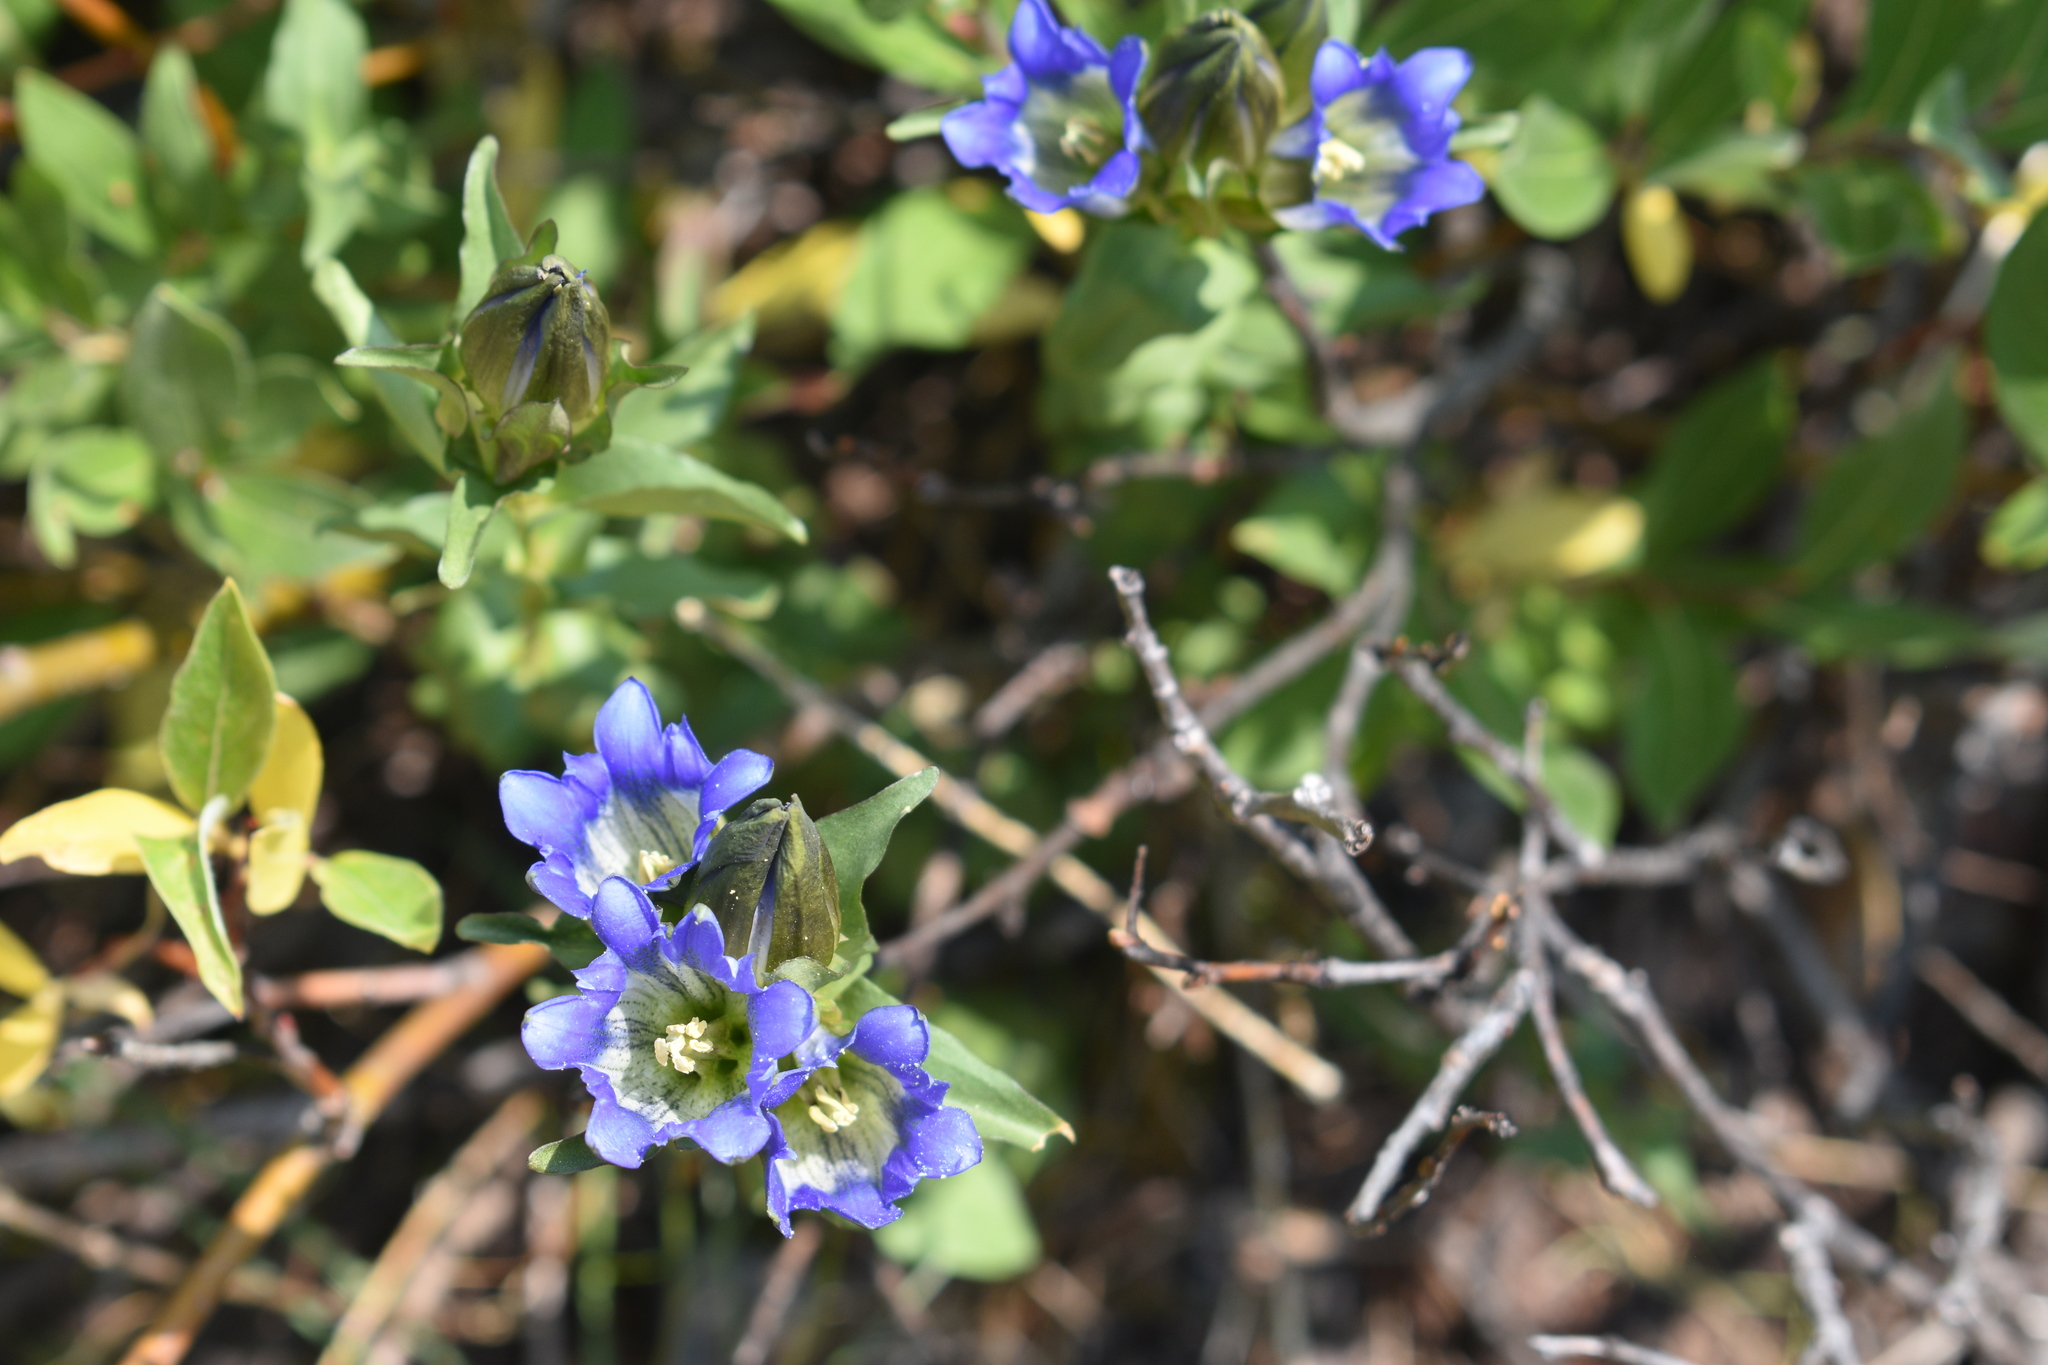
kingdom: Plantae
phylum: Tracheophyta
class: Magnoliopsida
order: Gentianales
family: Gentianaceae
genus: Gentiana
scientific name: Gentiana parryi
